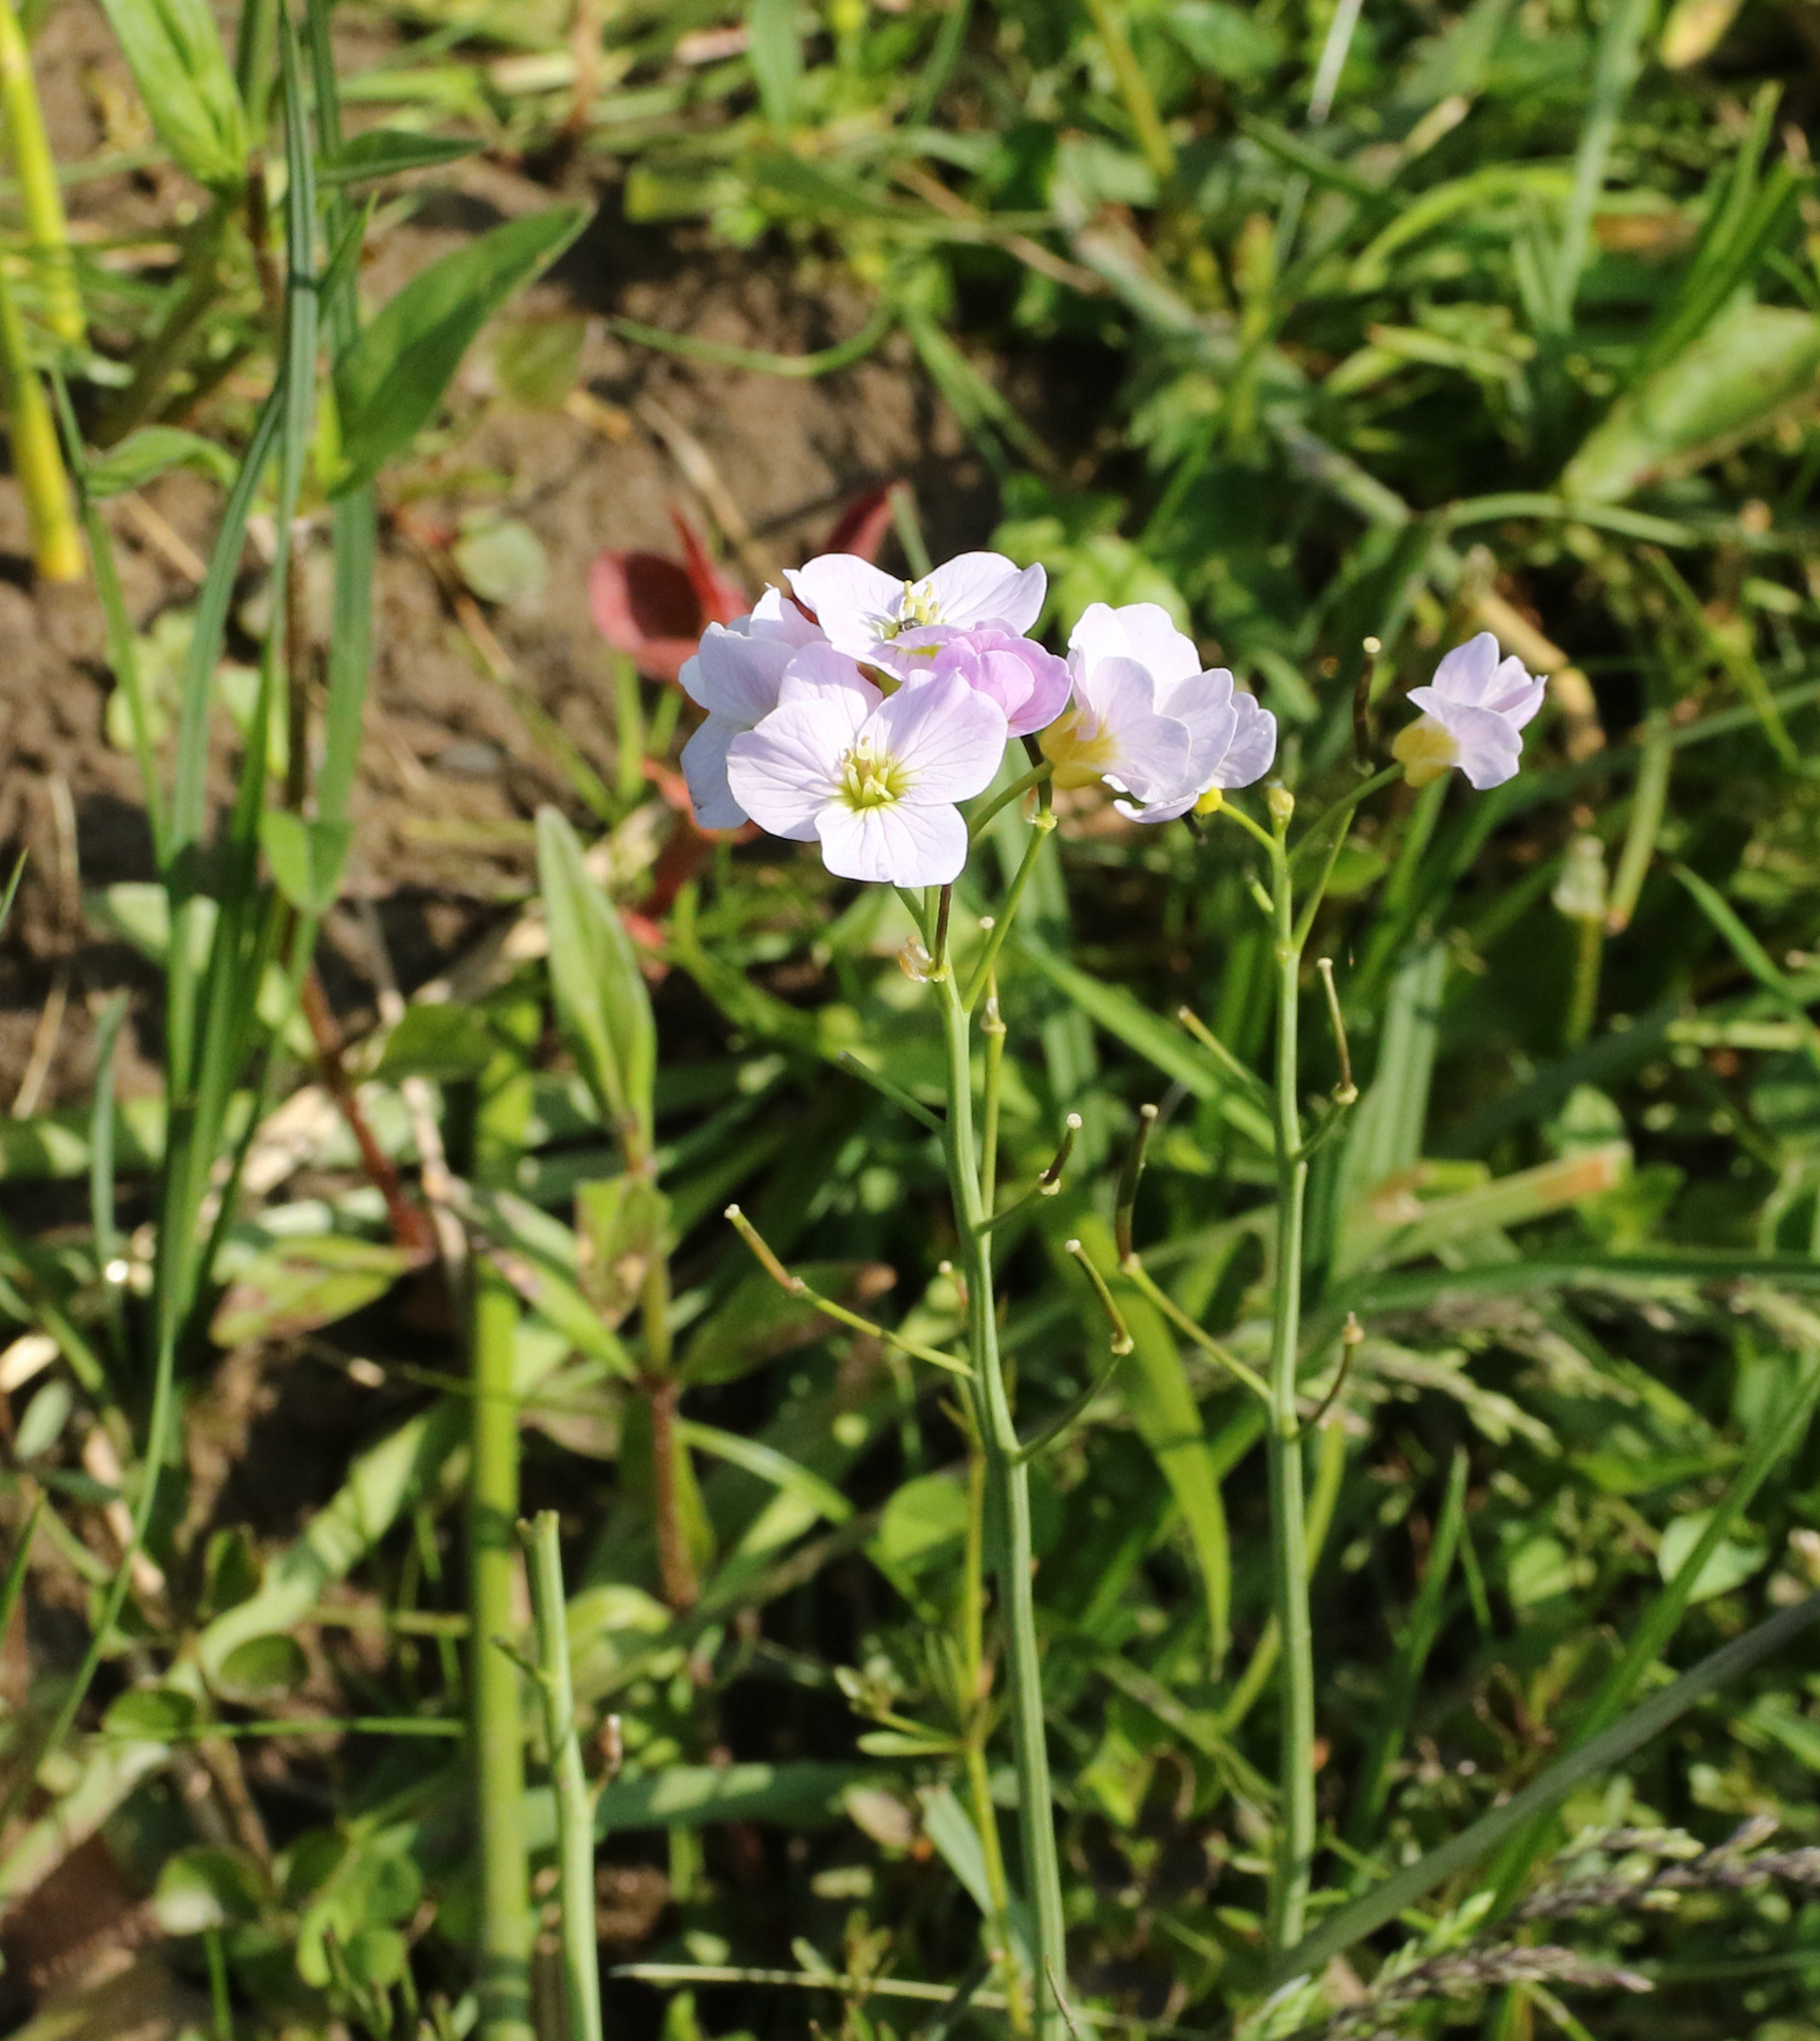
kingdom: Plantae
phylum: Tracheophyta
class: Magnoliopsida
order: Brassicales
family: Brassicaceae
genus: Cardamine
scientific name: Cardamine pratensis
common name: Cuckoo flower
